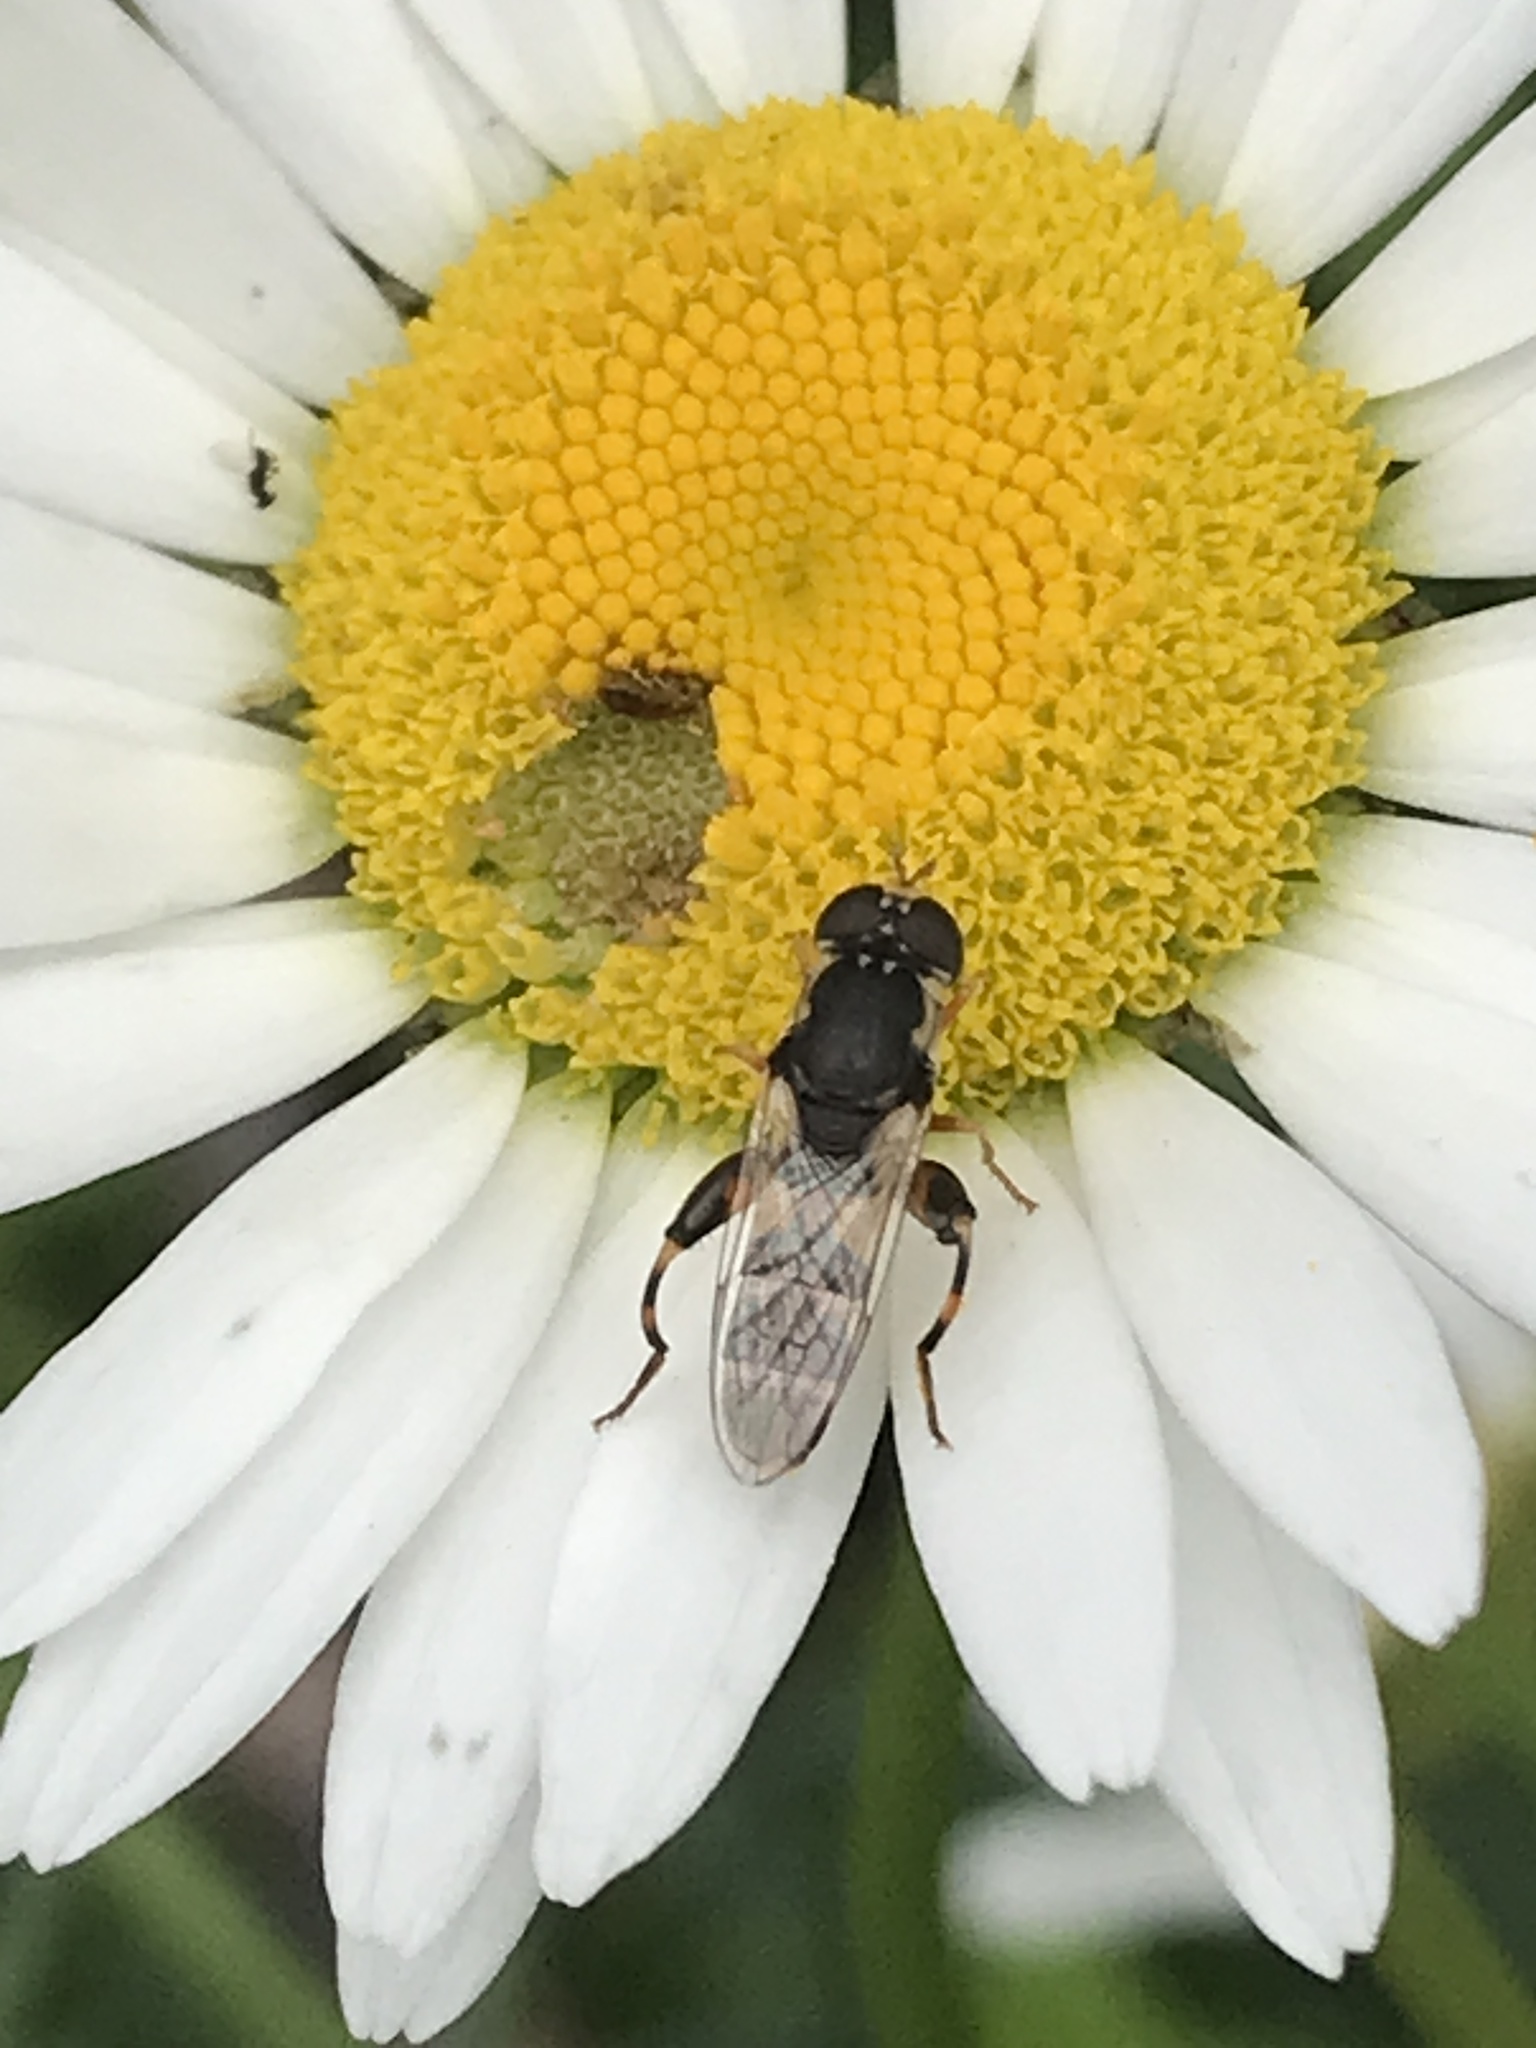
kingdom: Animalia
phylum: Arthropoda
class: Insecta
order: Diptera
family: Syrphidae
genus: Syritta
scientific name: Syritta pipiens
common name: Hover fly
